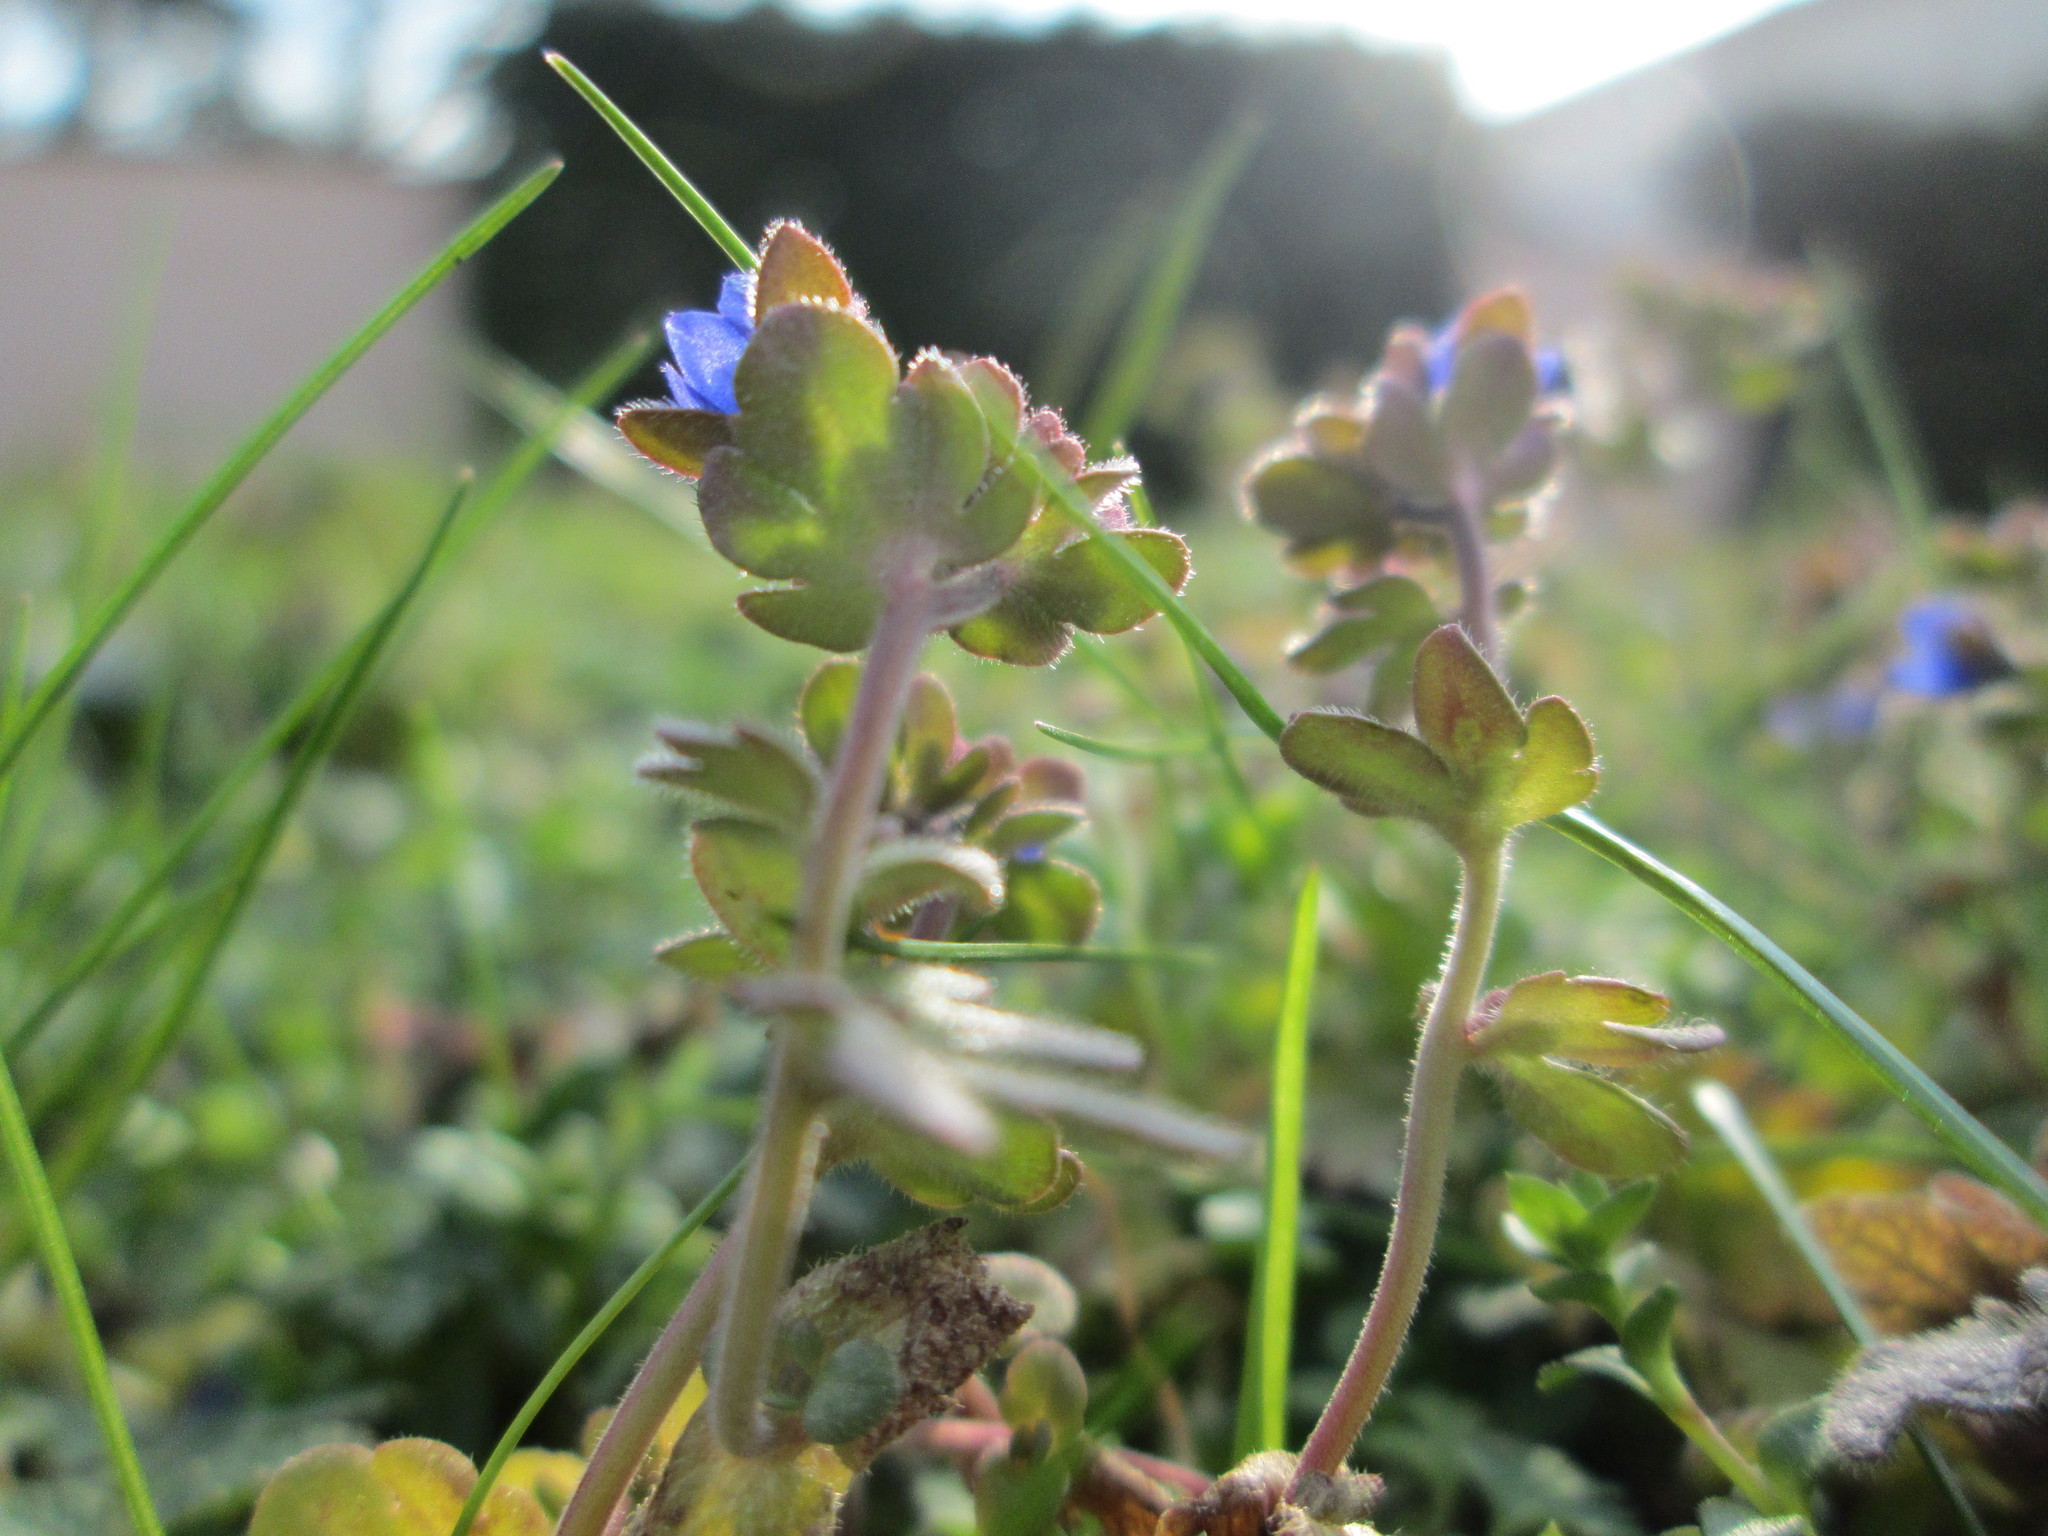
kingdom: Plantae
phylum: Tracheophyta
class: Magnoliopsida
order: Lamiales
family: Plantaginaceae
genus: Veronica
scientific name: Veronica triphyllos
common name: Fingered speedwell
